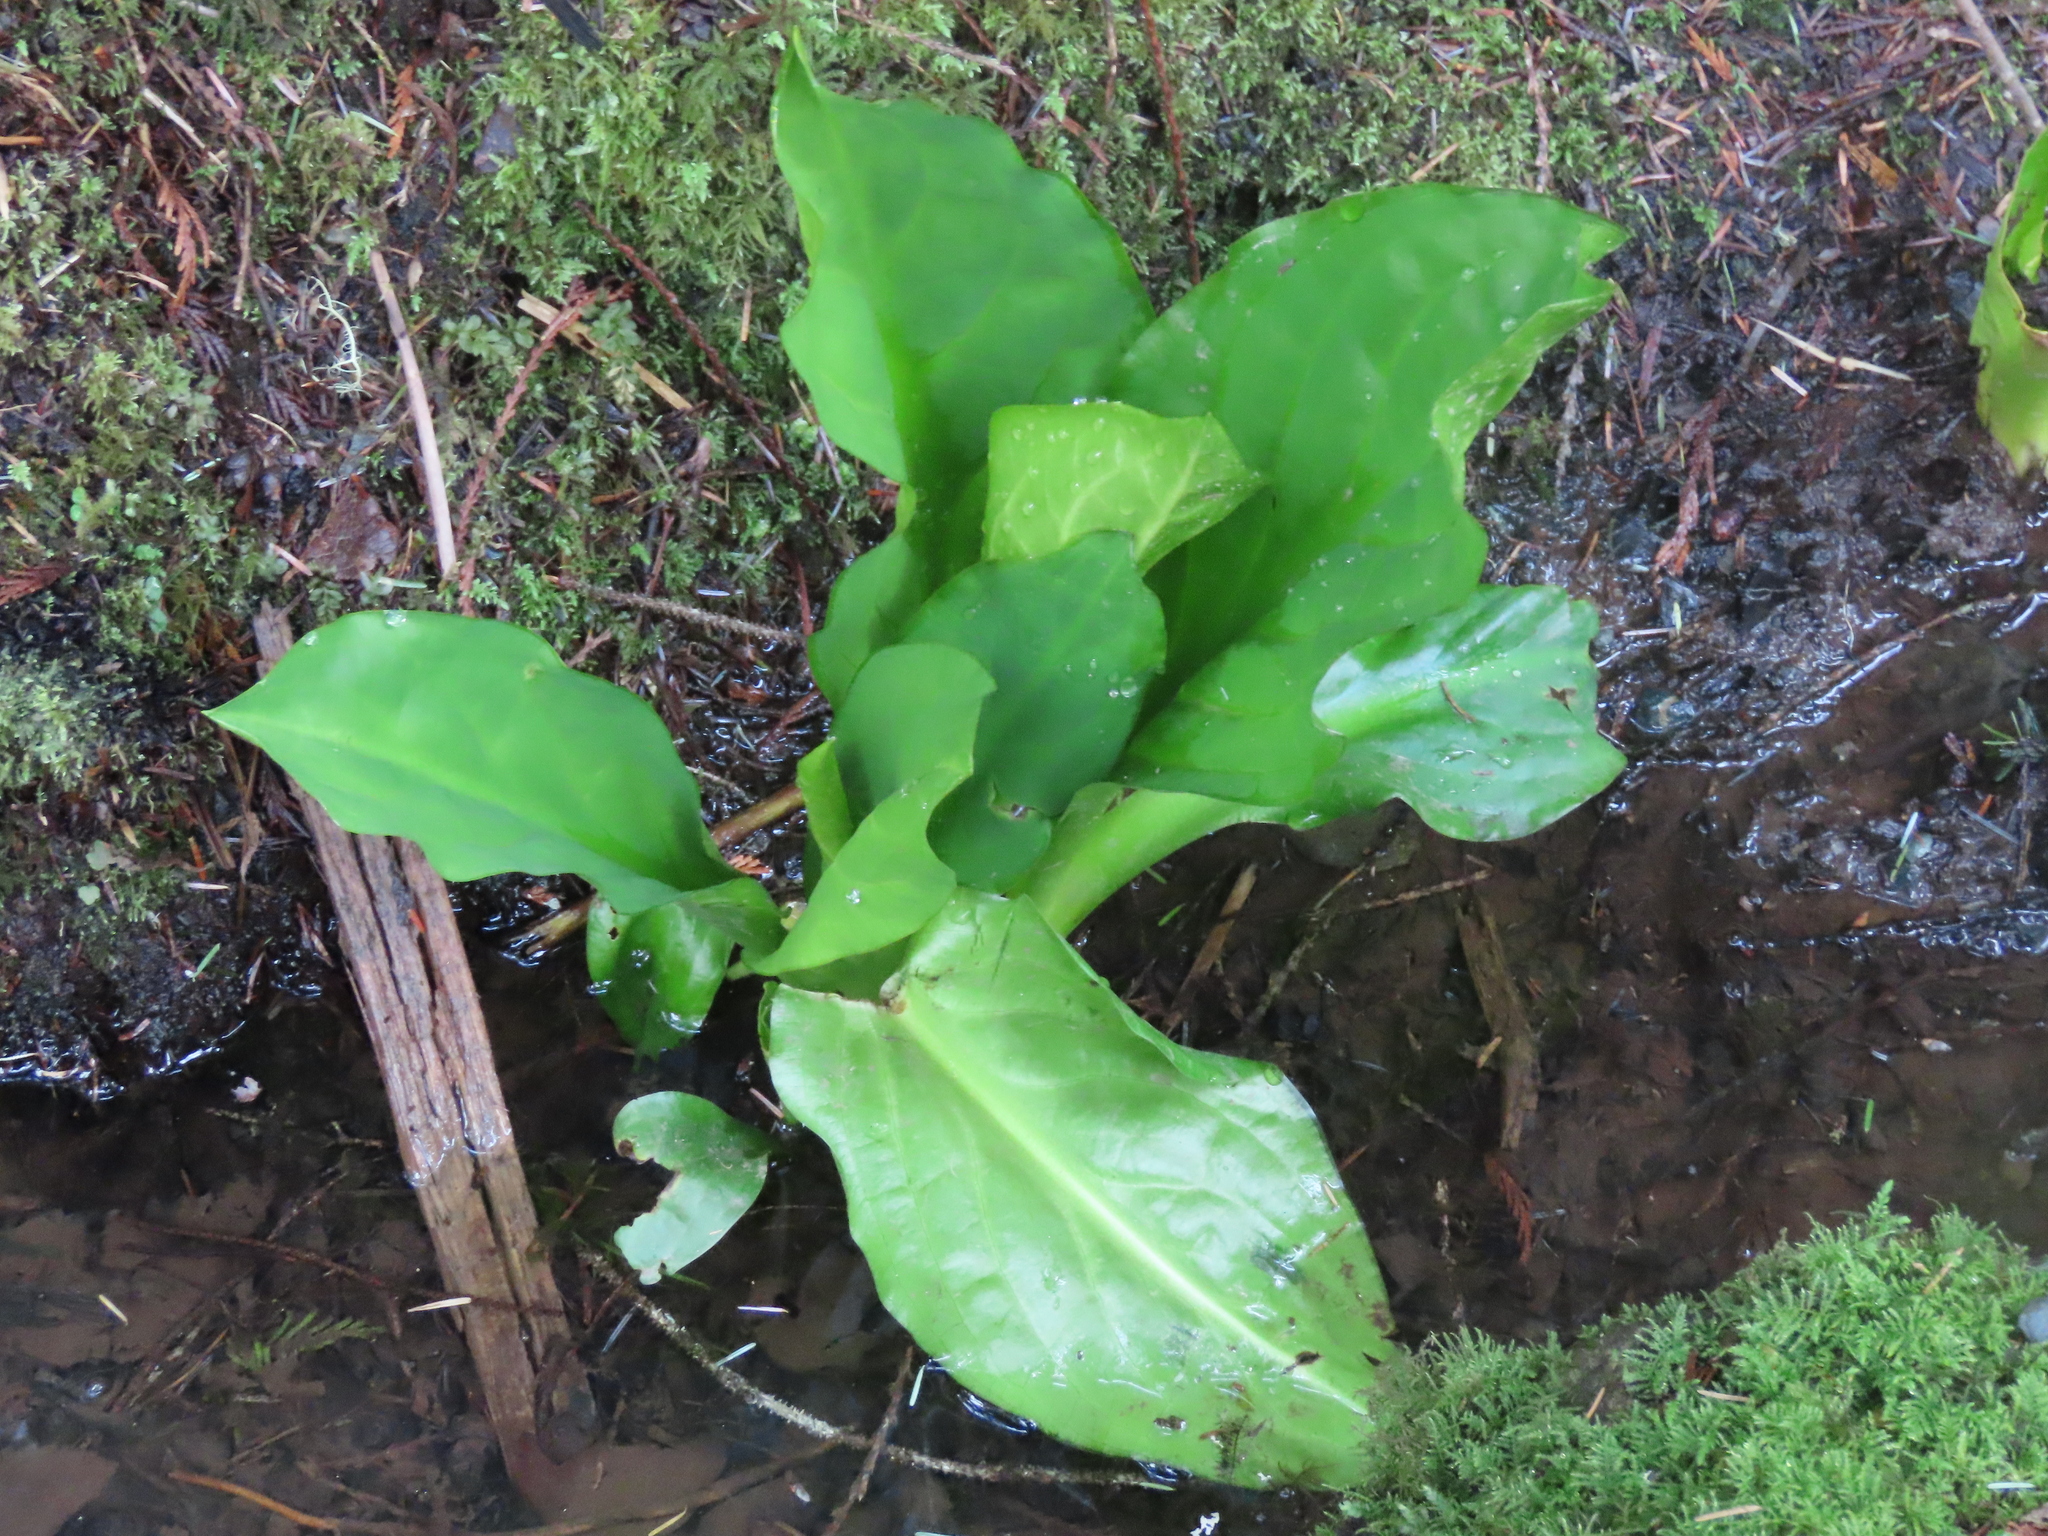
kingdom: Plantae
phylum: Tracheophyta
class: Liliopsida
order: Alismatales
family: Araceae
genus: Lysichiton
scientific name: Lysichiton americanus
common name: American skunk cabbage
